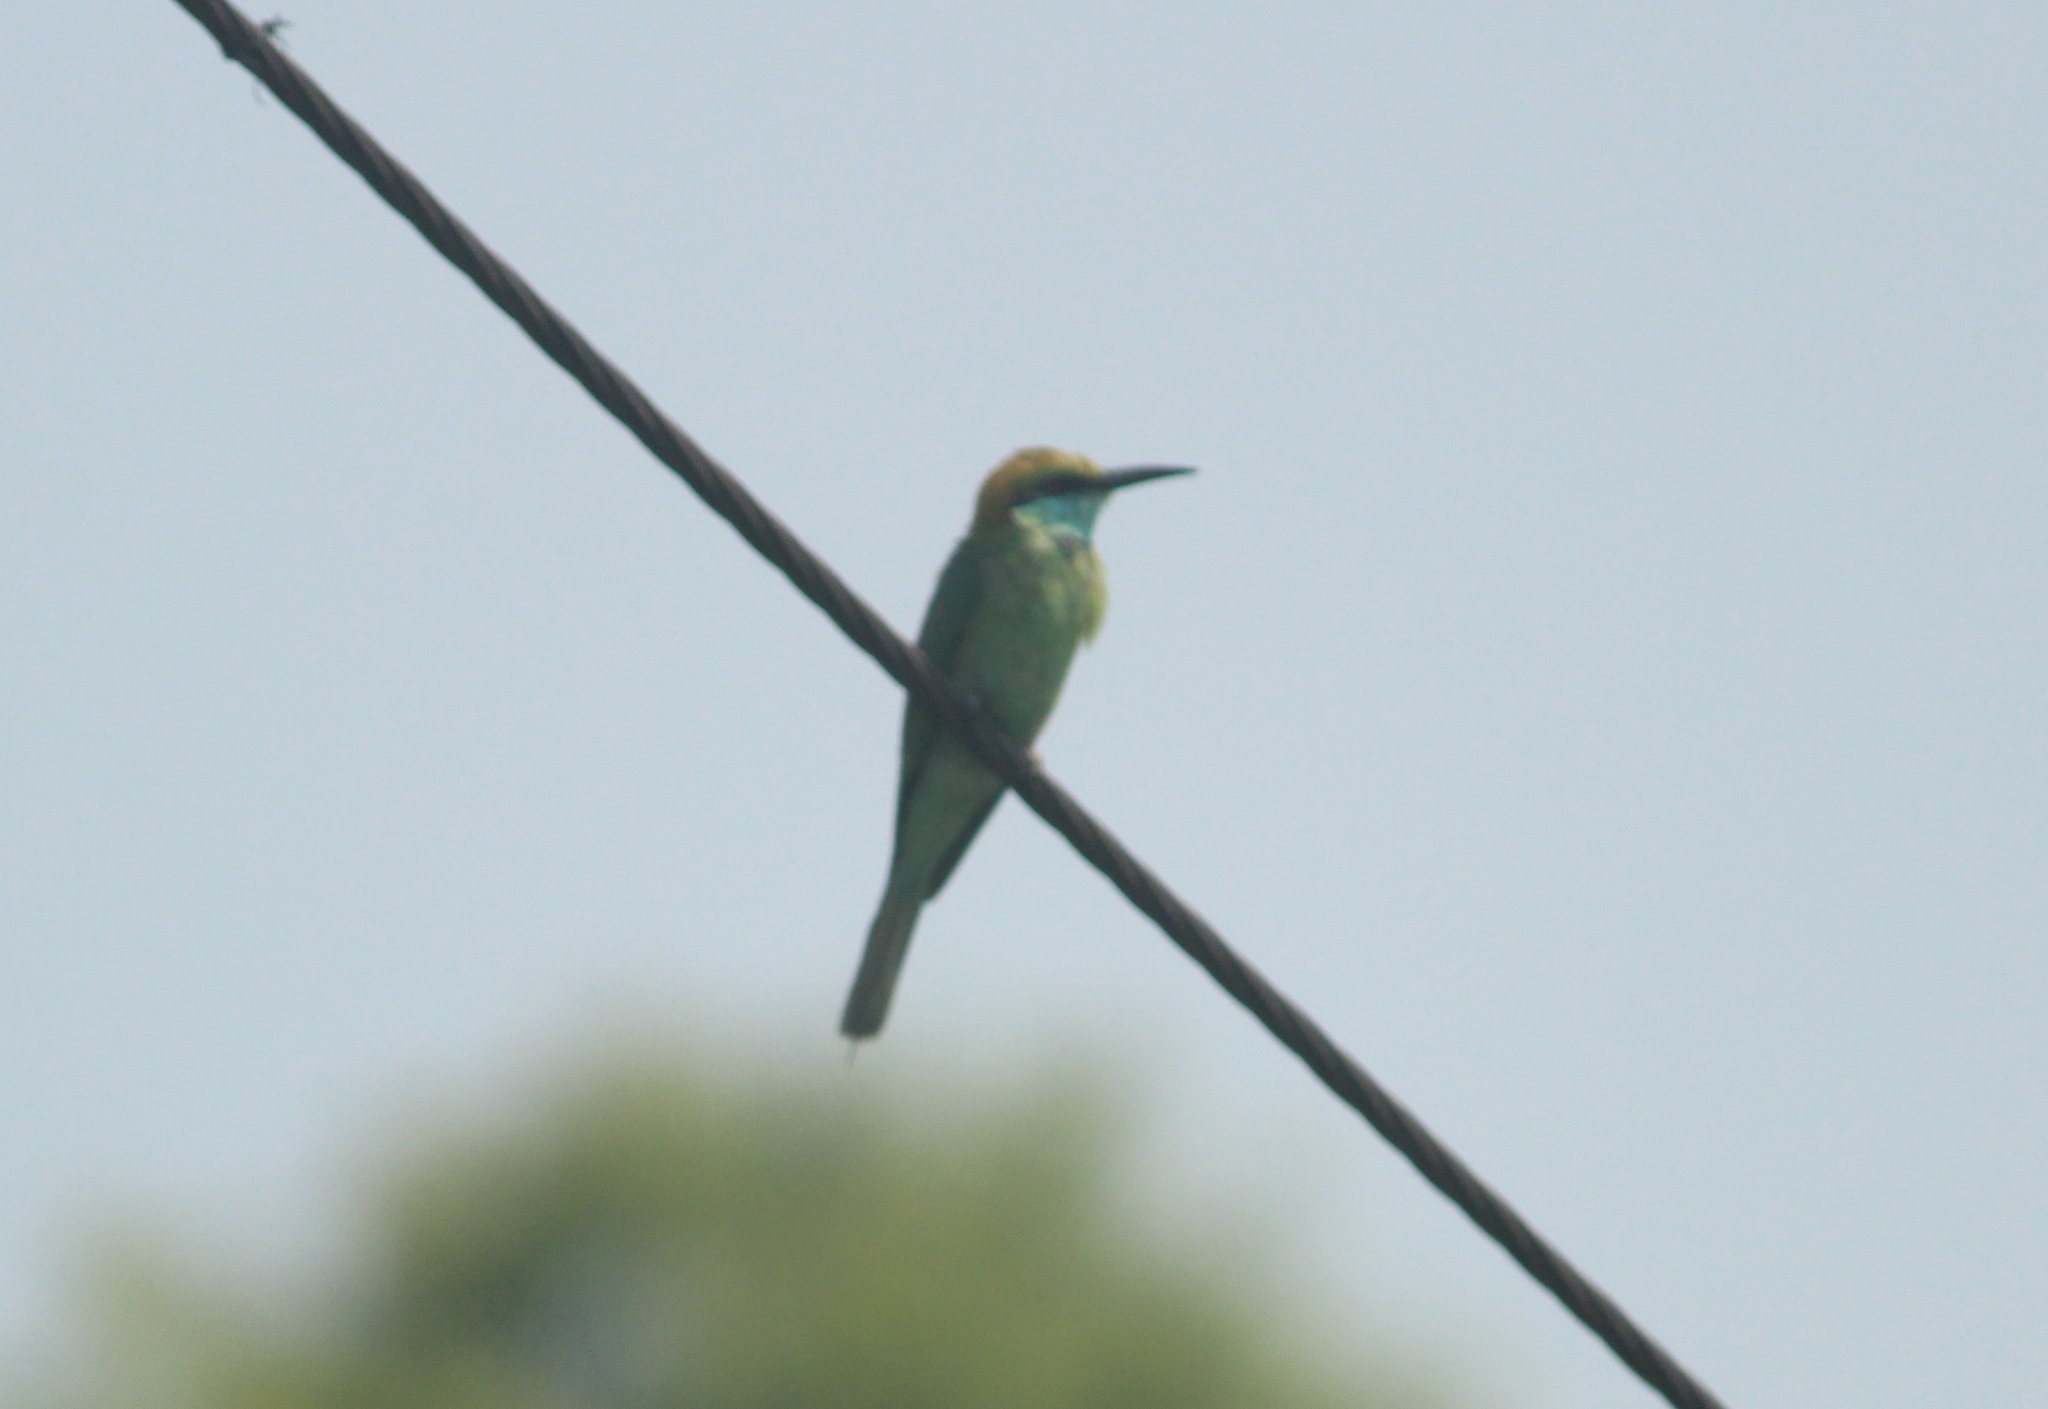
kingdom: Animalia
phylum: Chordata
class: Aves
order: Coraciiformes
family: Meropidae
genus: Merops
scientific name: Merops orientalis
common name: Green bee-eater
